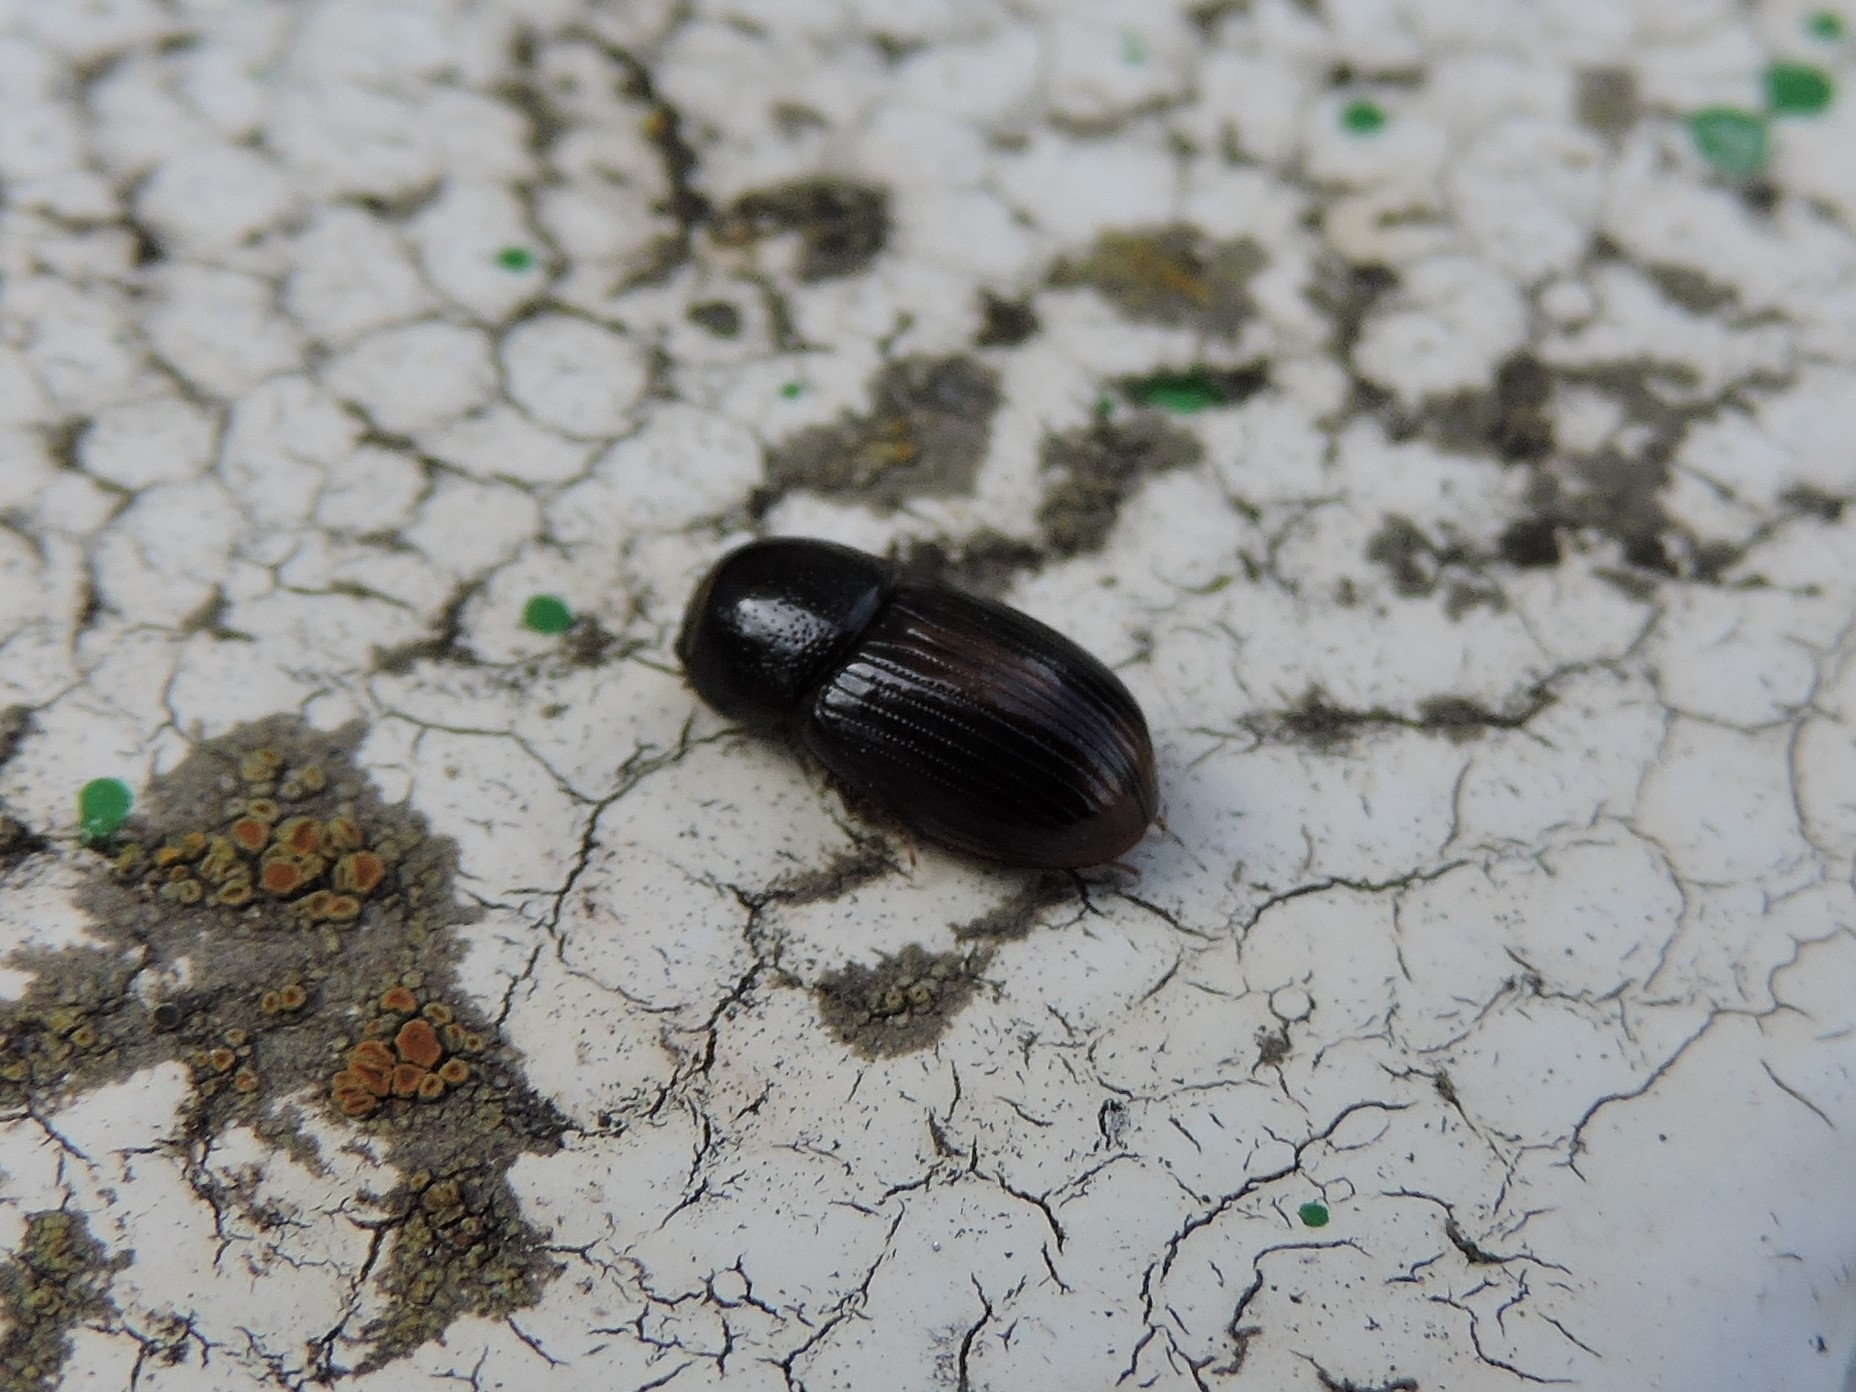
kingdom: Animalia
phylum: Arthropoda
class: Insecta
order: Coleoptera
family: Scarabaeidae
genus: Phaeaphodius
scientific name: Phaeaphodius rectus
